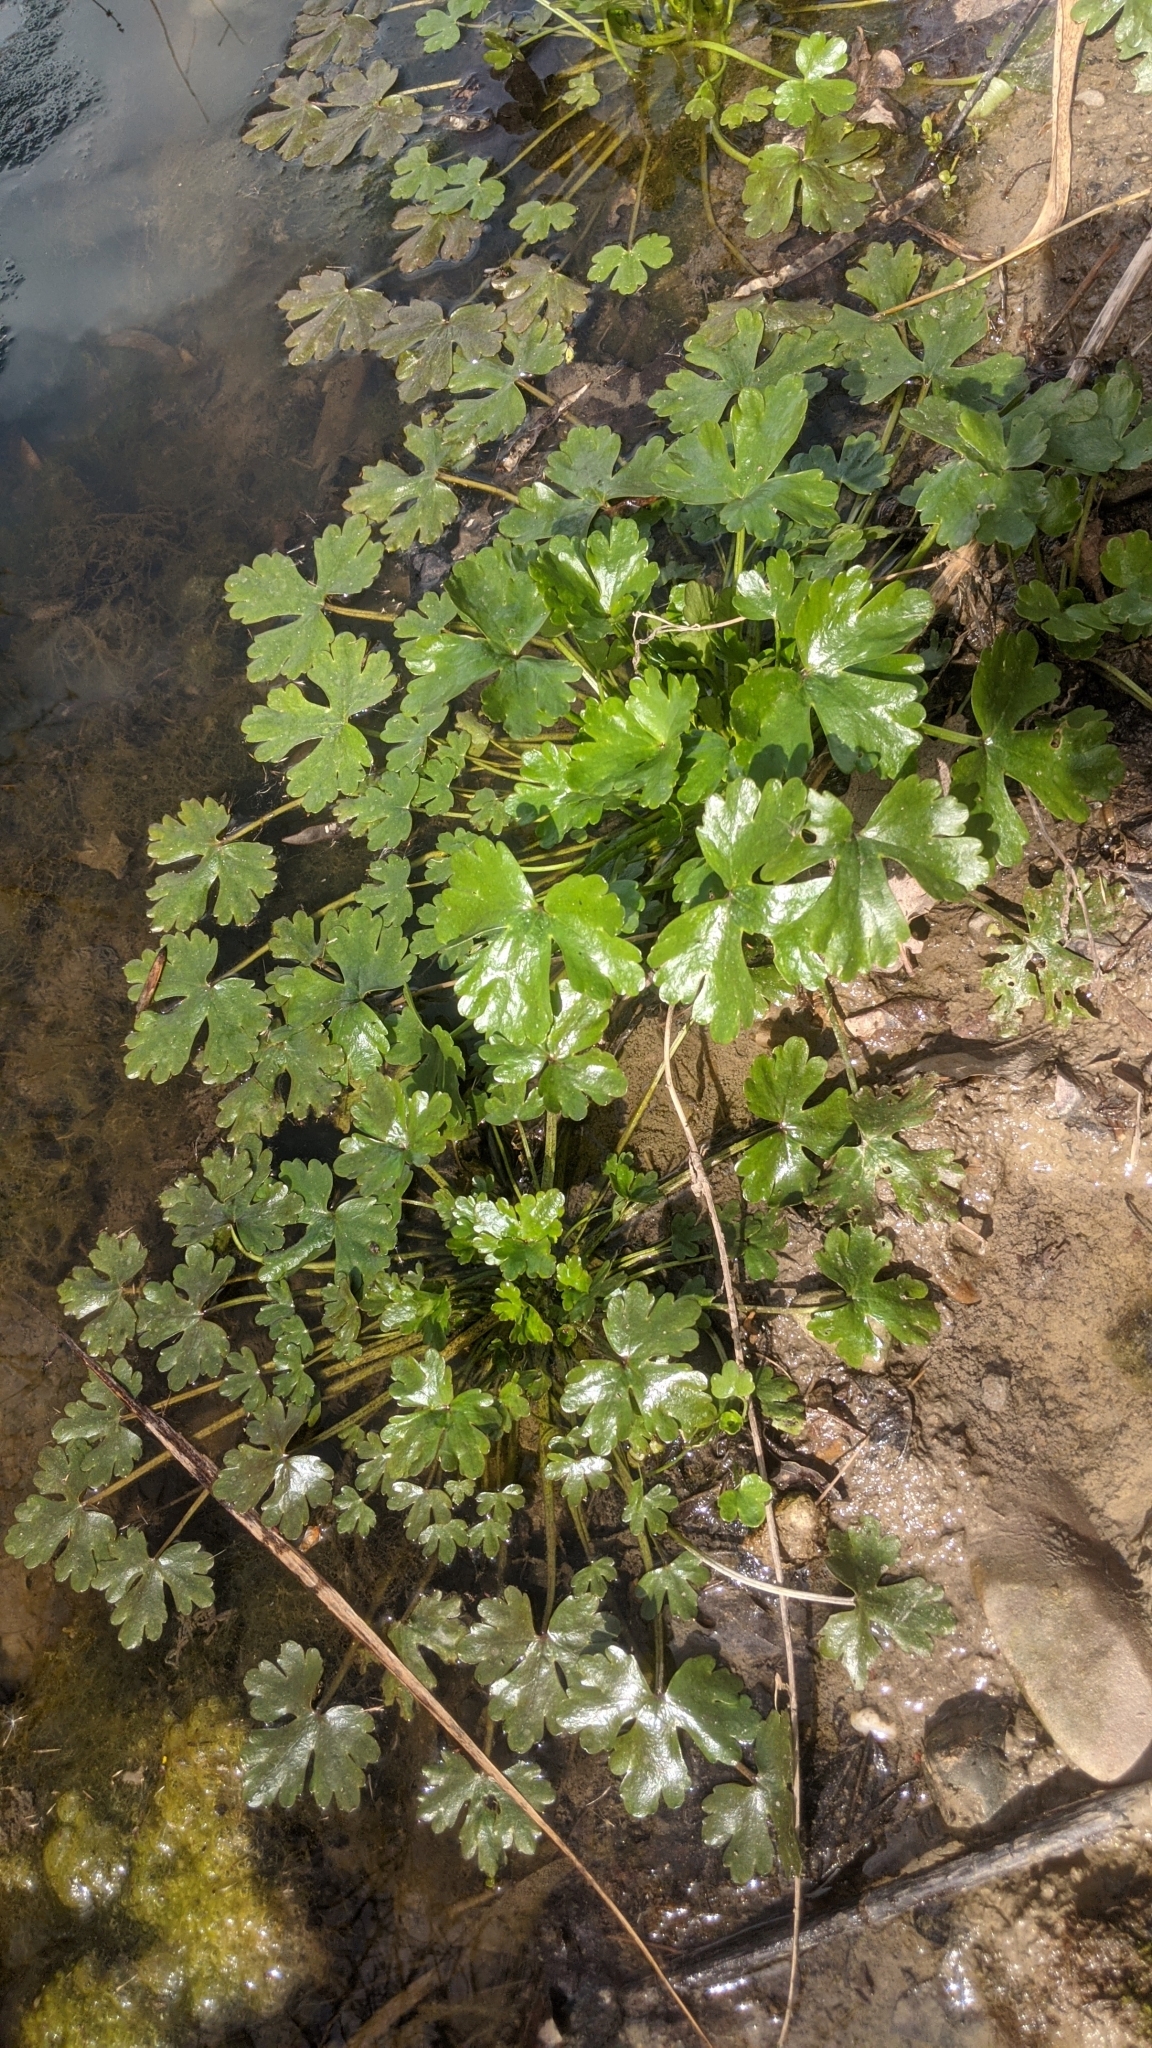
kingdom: Plantae
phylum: Tracheophyta
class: Magnoliopsida
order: Ranunculales
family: Ranunculaceae
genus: Ranunculus
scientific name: Ranunculus sceleratus
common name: Celery-leaved buttercup
